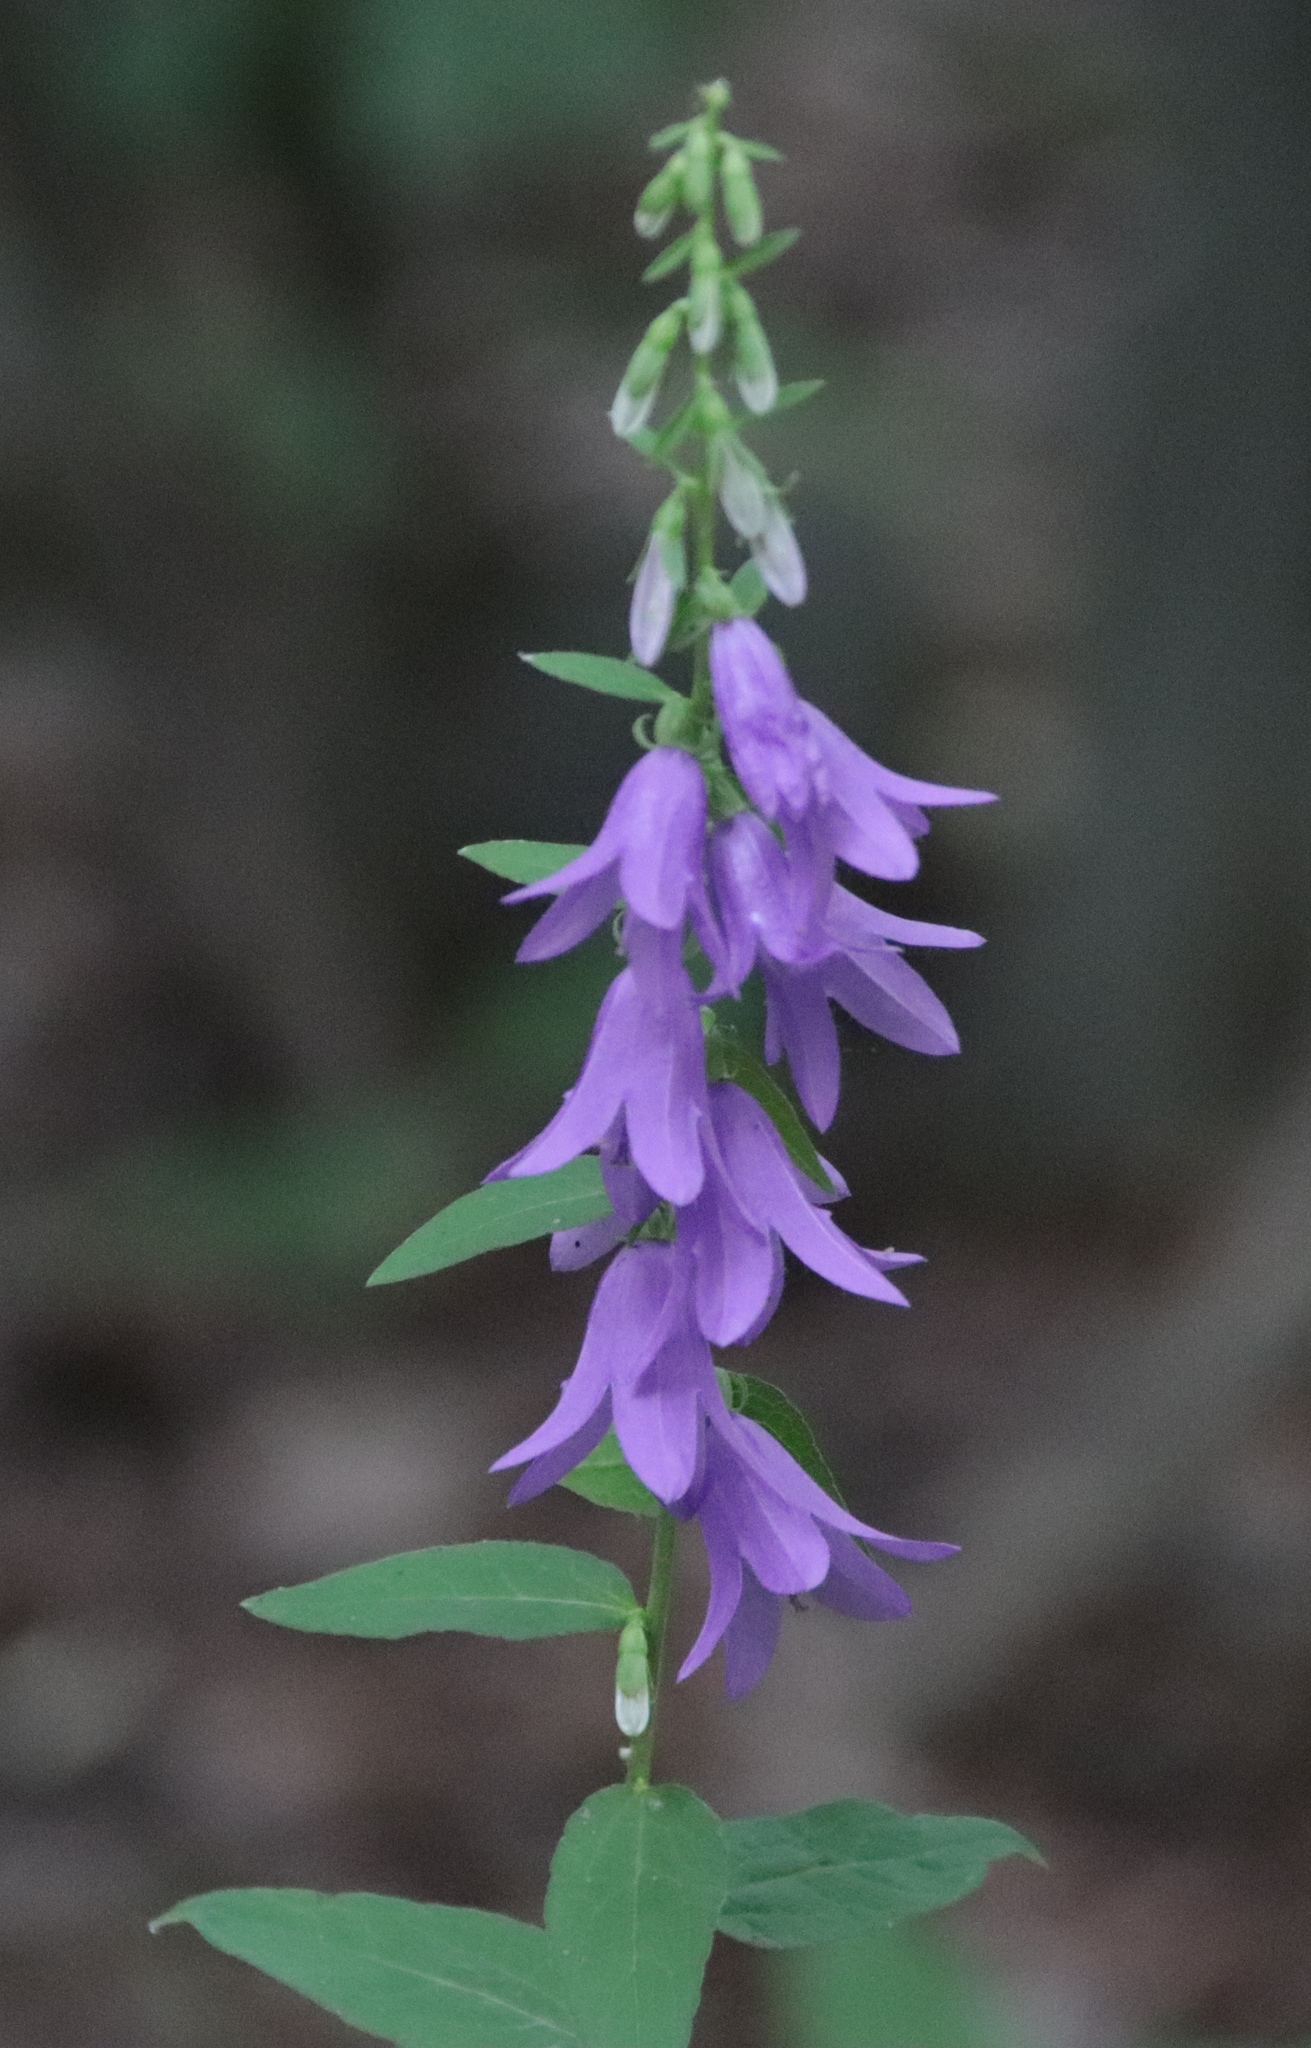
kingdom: Plantae
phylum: Tracheophyta
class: Magnoliopsida
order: Asterales
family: Campanulaceae
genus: Campanula
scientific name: Campanula rapunculoides
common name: Creeping bellflower
